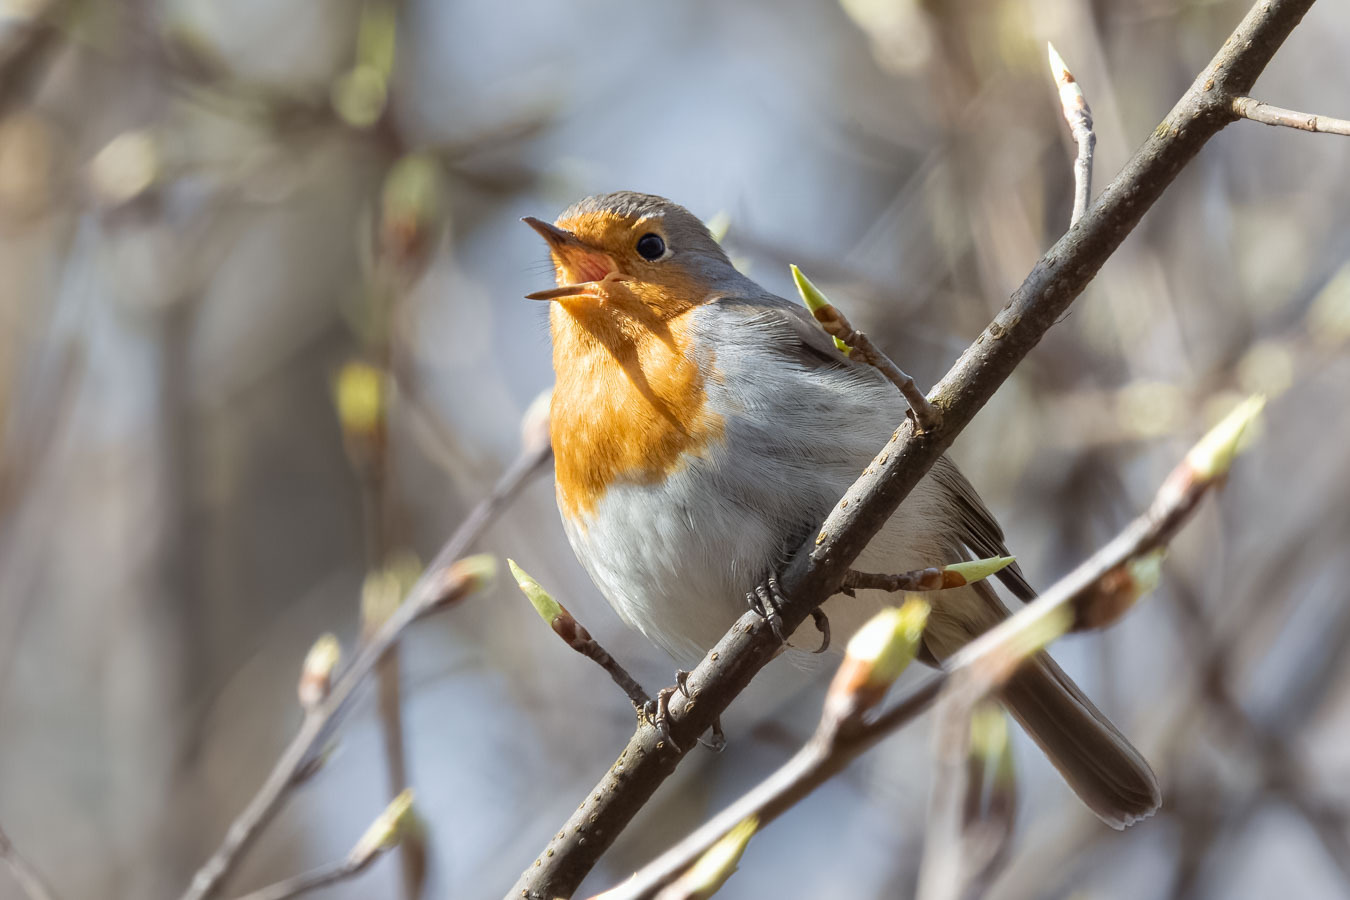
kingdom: Animalia
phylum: Chordata
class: Aves
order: Passeriformes
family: Muscicapidae
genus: Erithacus
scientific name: Erithacus rubecula
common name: European robin
